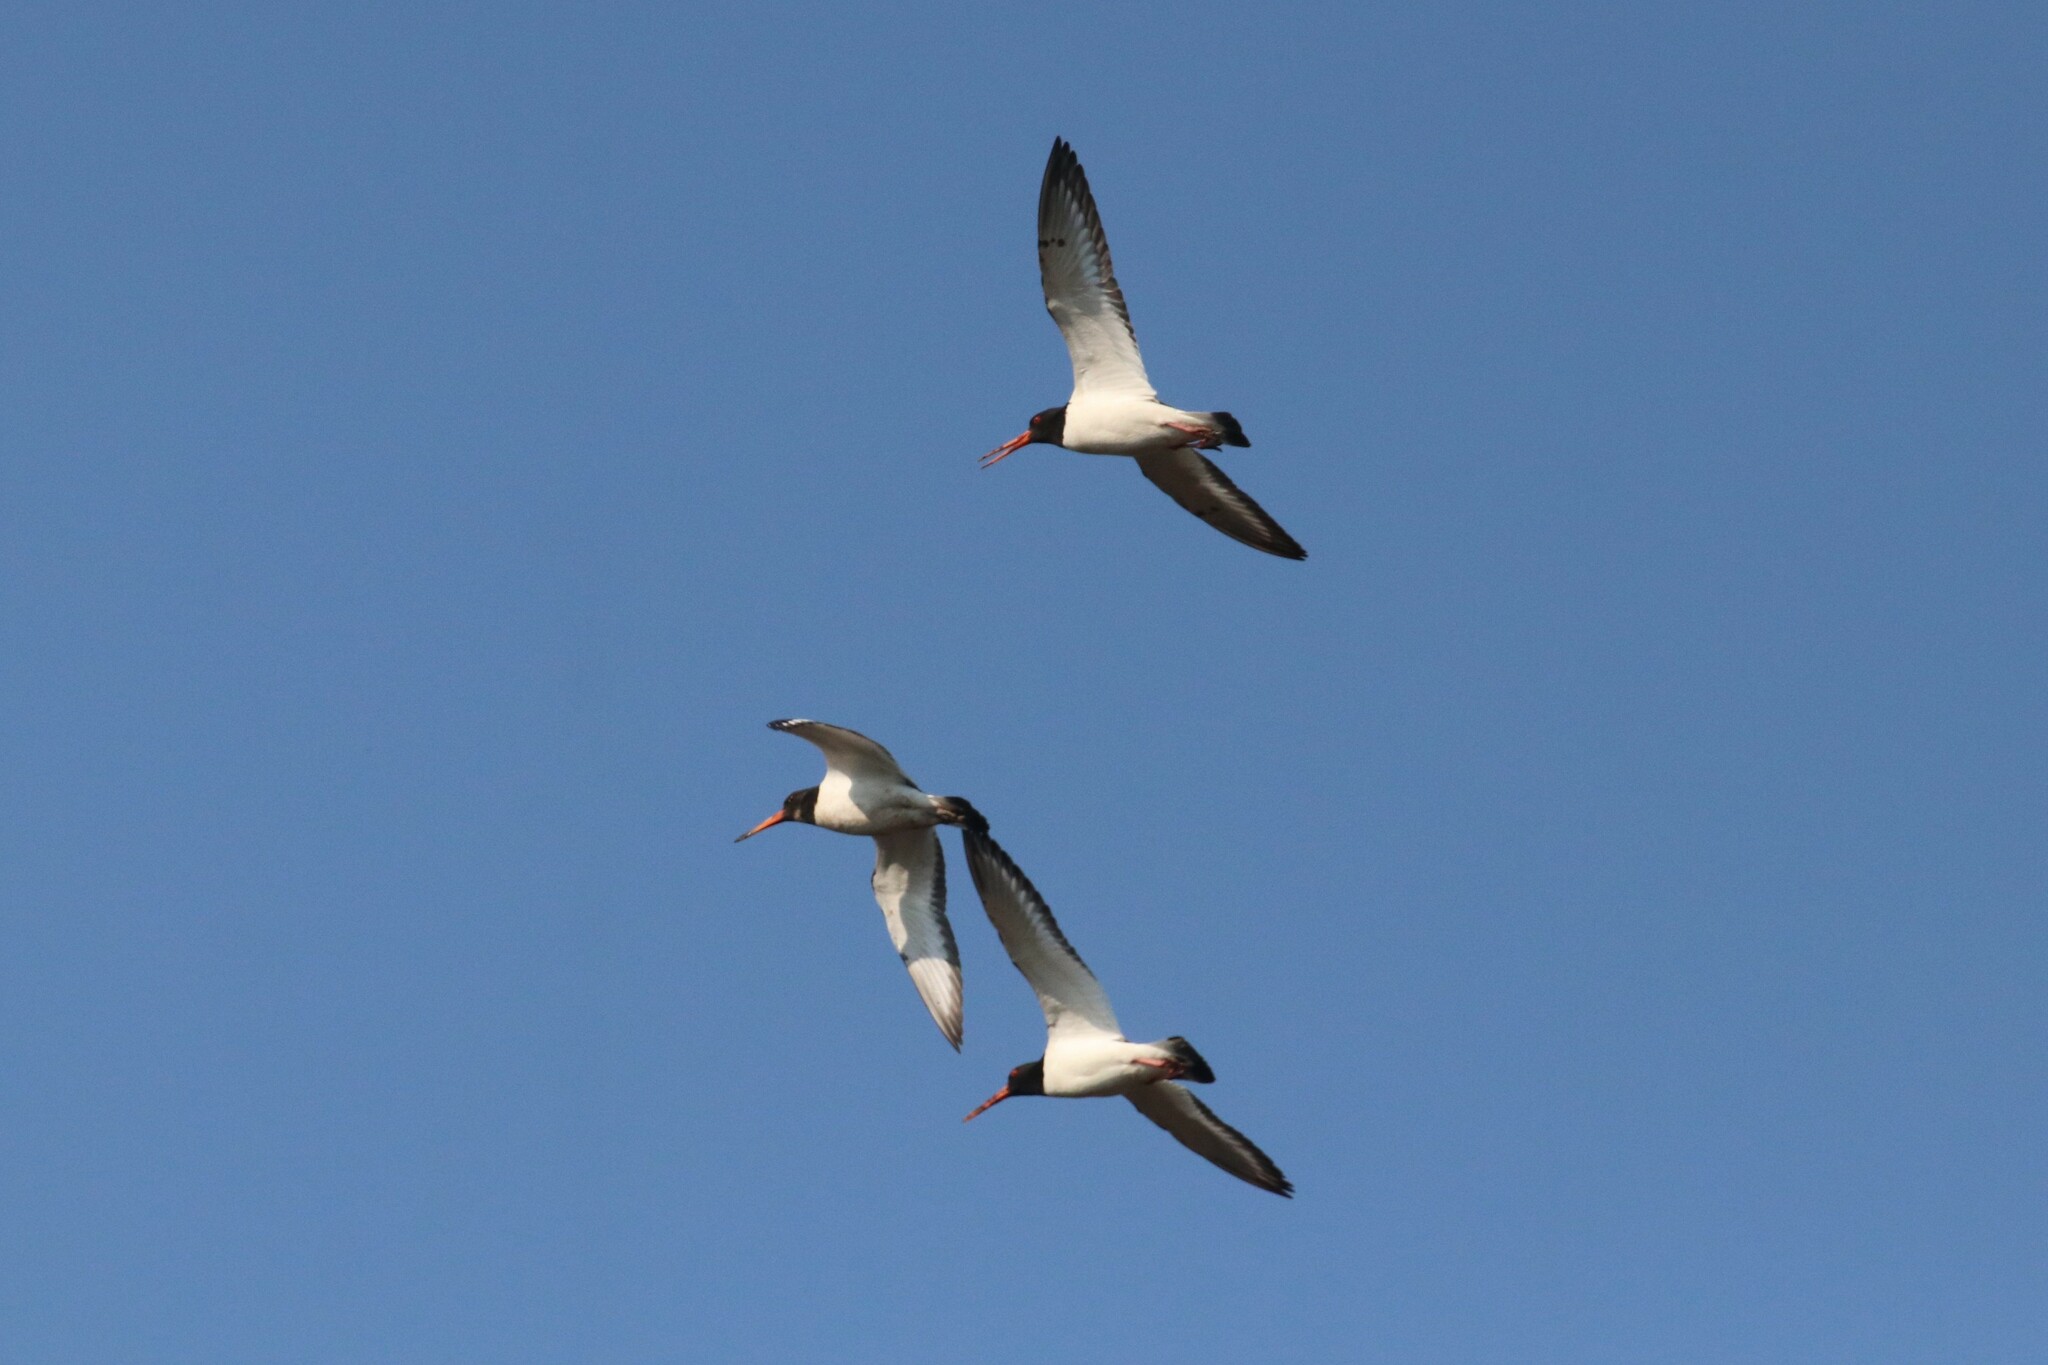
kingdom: Animalia
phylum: Chordata
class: Aves
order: Charadriiformes
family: Haematopodidae
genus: Haematopus
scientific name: Haematopus ostralegus
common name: Eurasian oystercatcher
